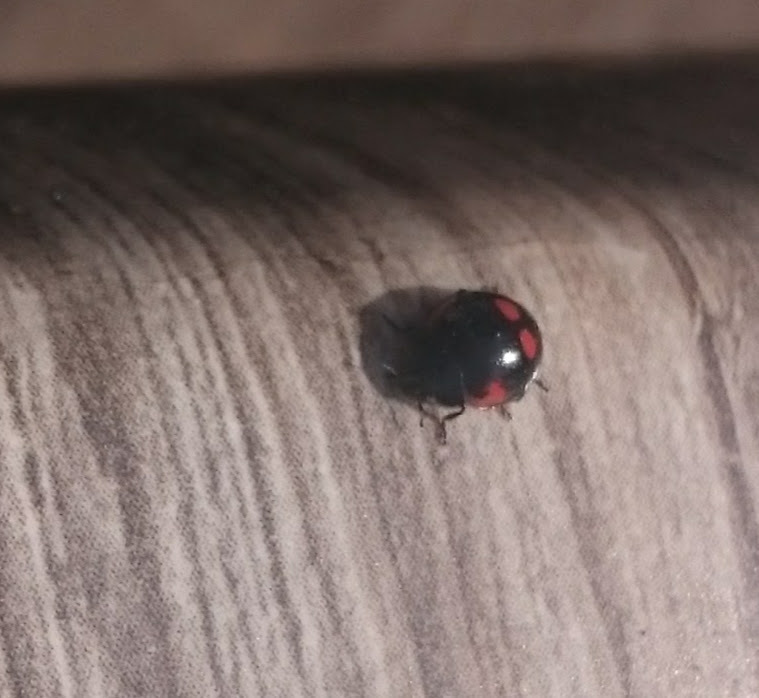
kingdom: Animalia
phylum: Arthropoda
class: Insecta
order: Coleoptera
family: Coccinellidae
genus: Brumus
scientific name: Brumus quadripustulatus
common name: Ladybird beetle
